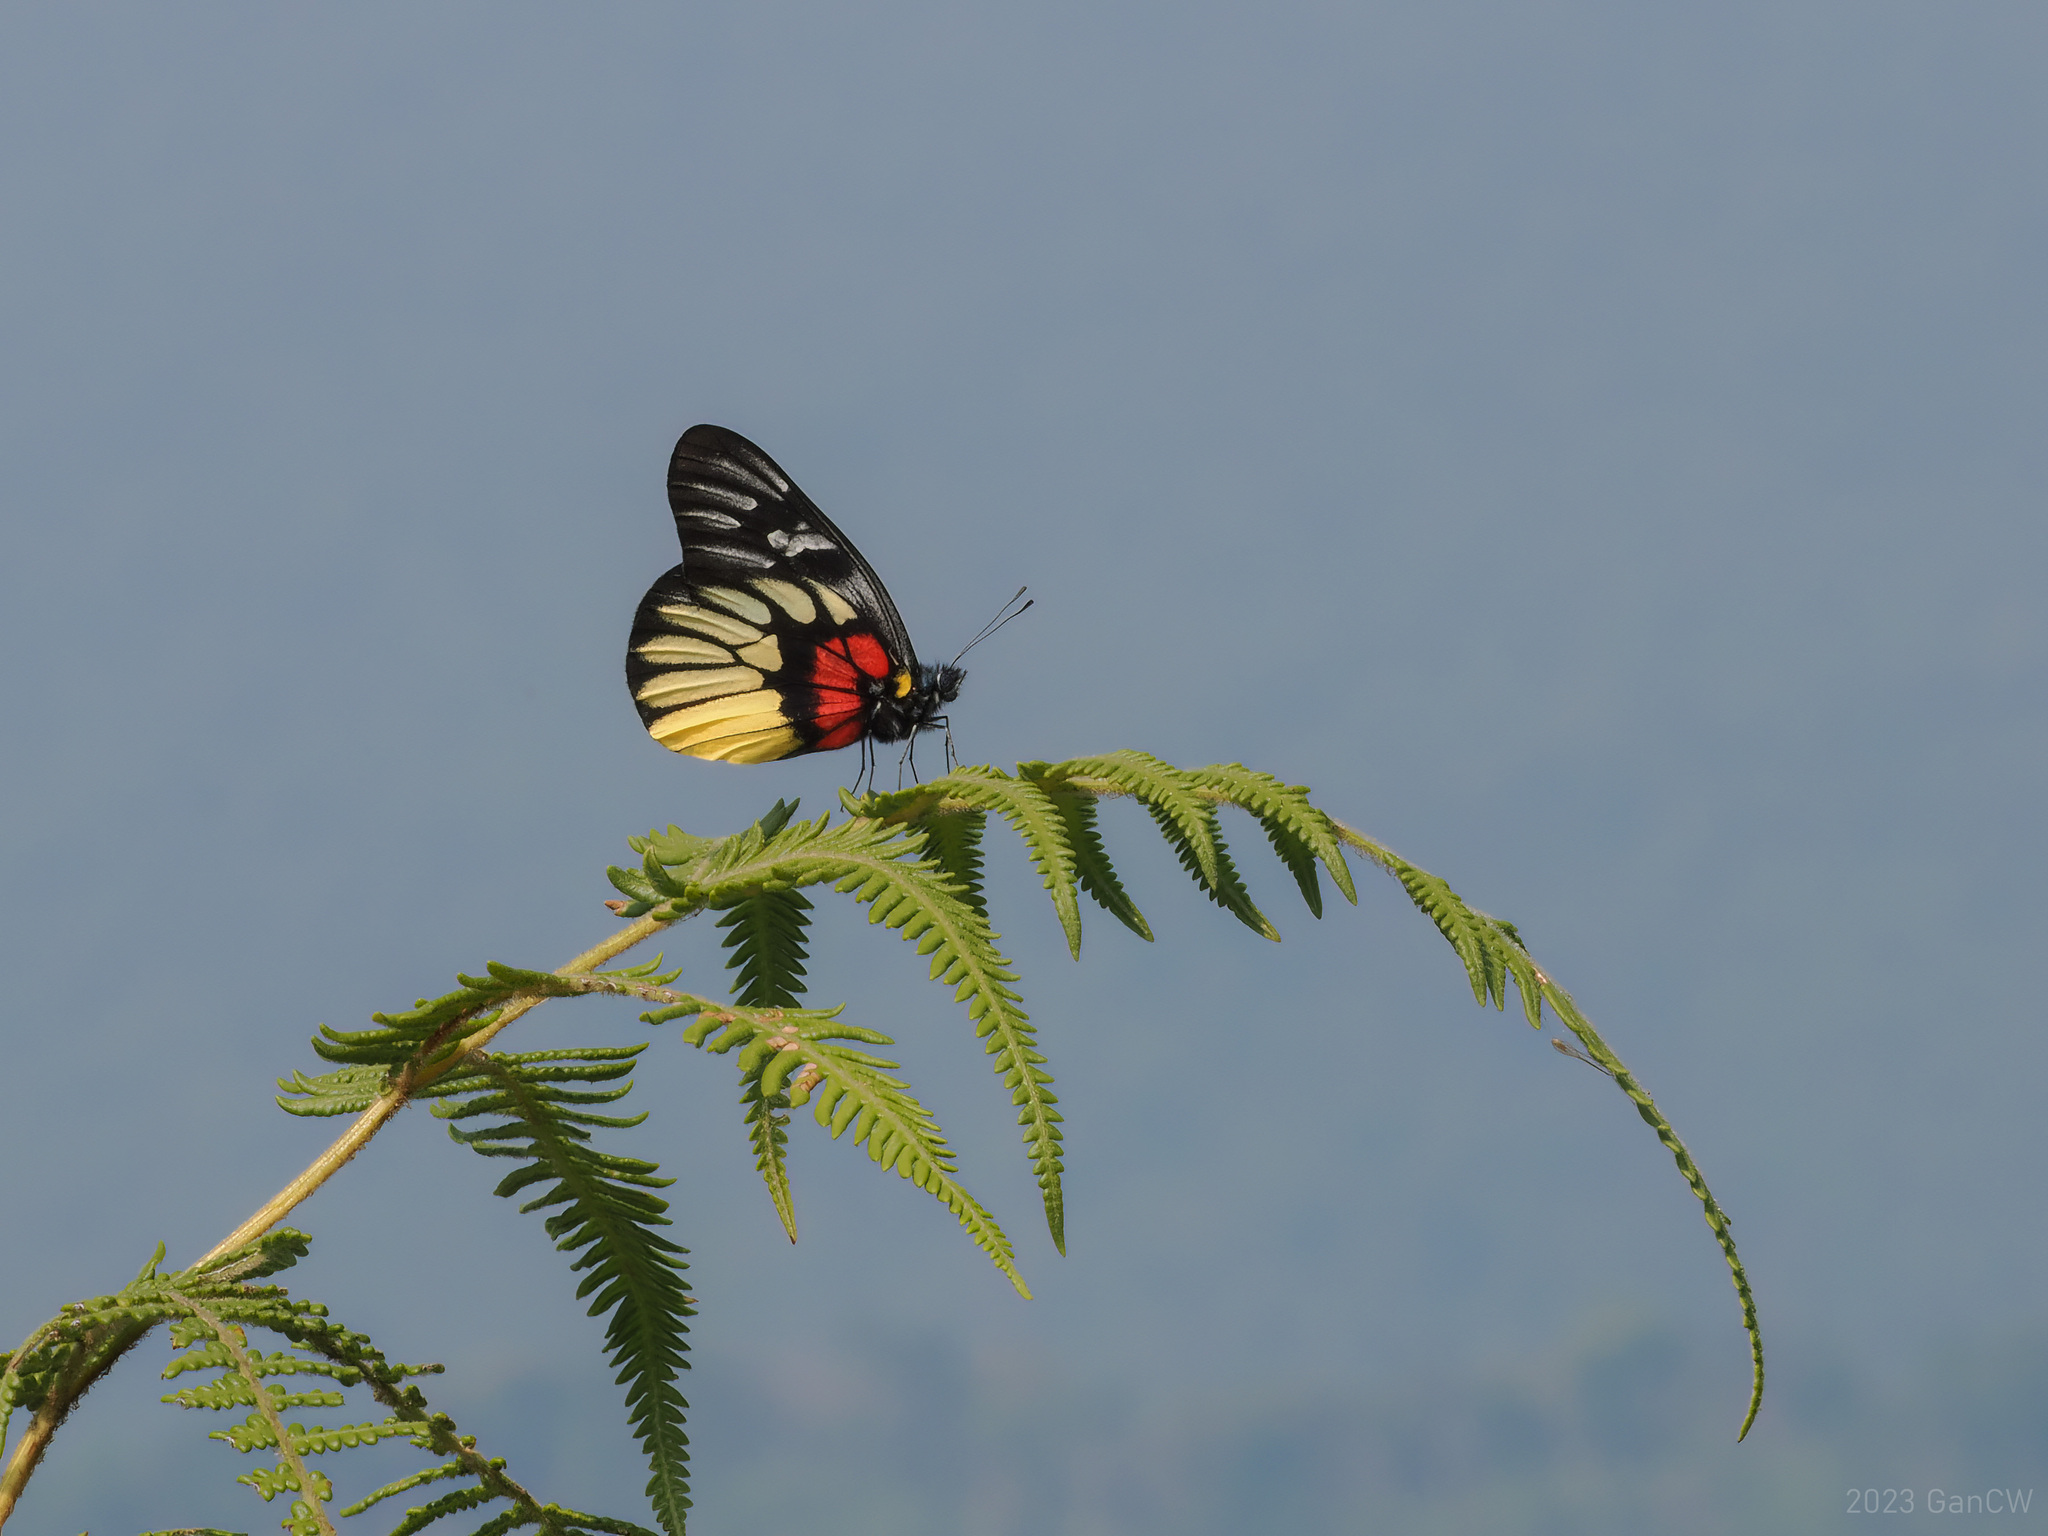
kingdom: Animalia
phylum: Arthropoda
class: Insecta
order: Lepidoptera
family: Pieridae
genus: Delias
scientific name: Delias acalis
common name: Red-breast jezebel
